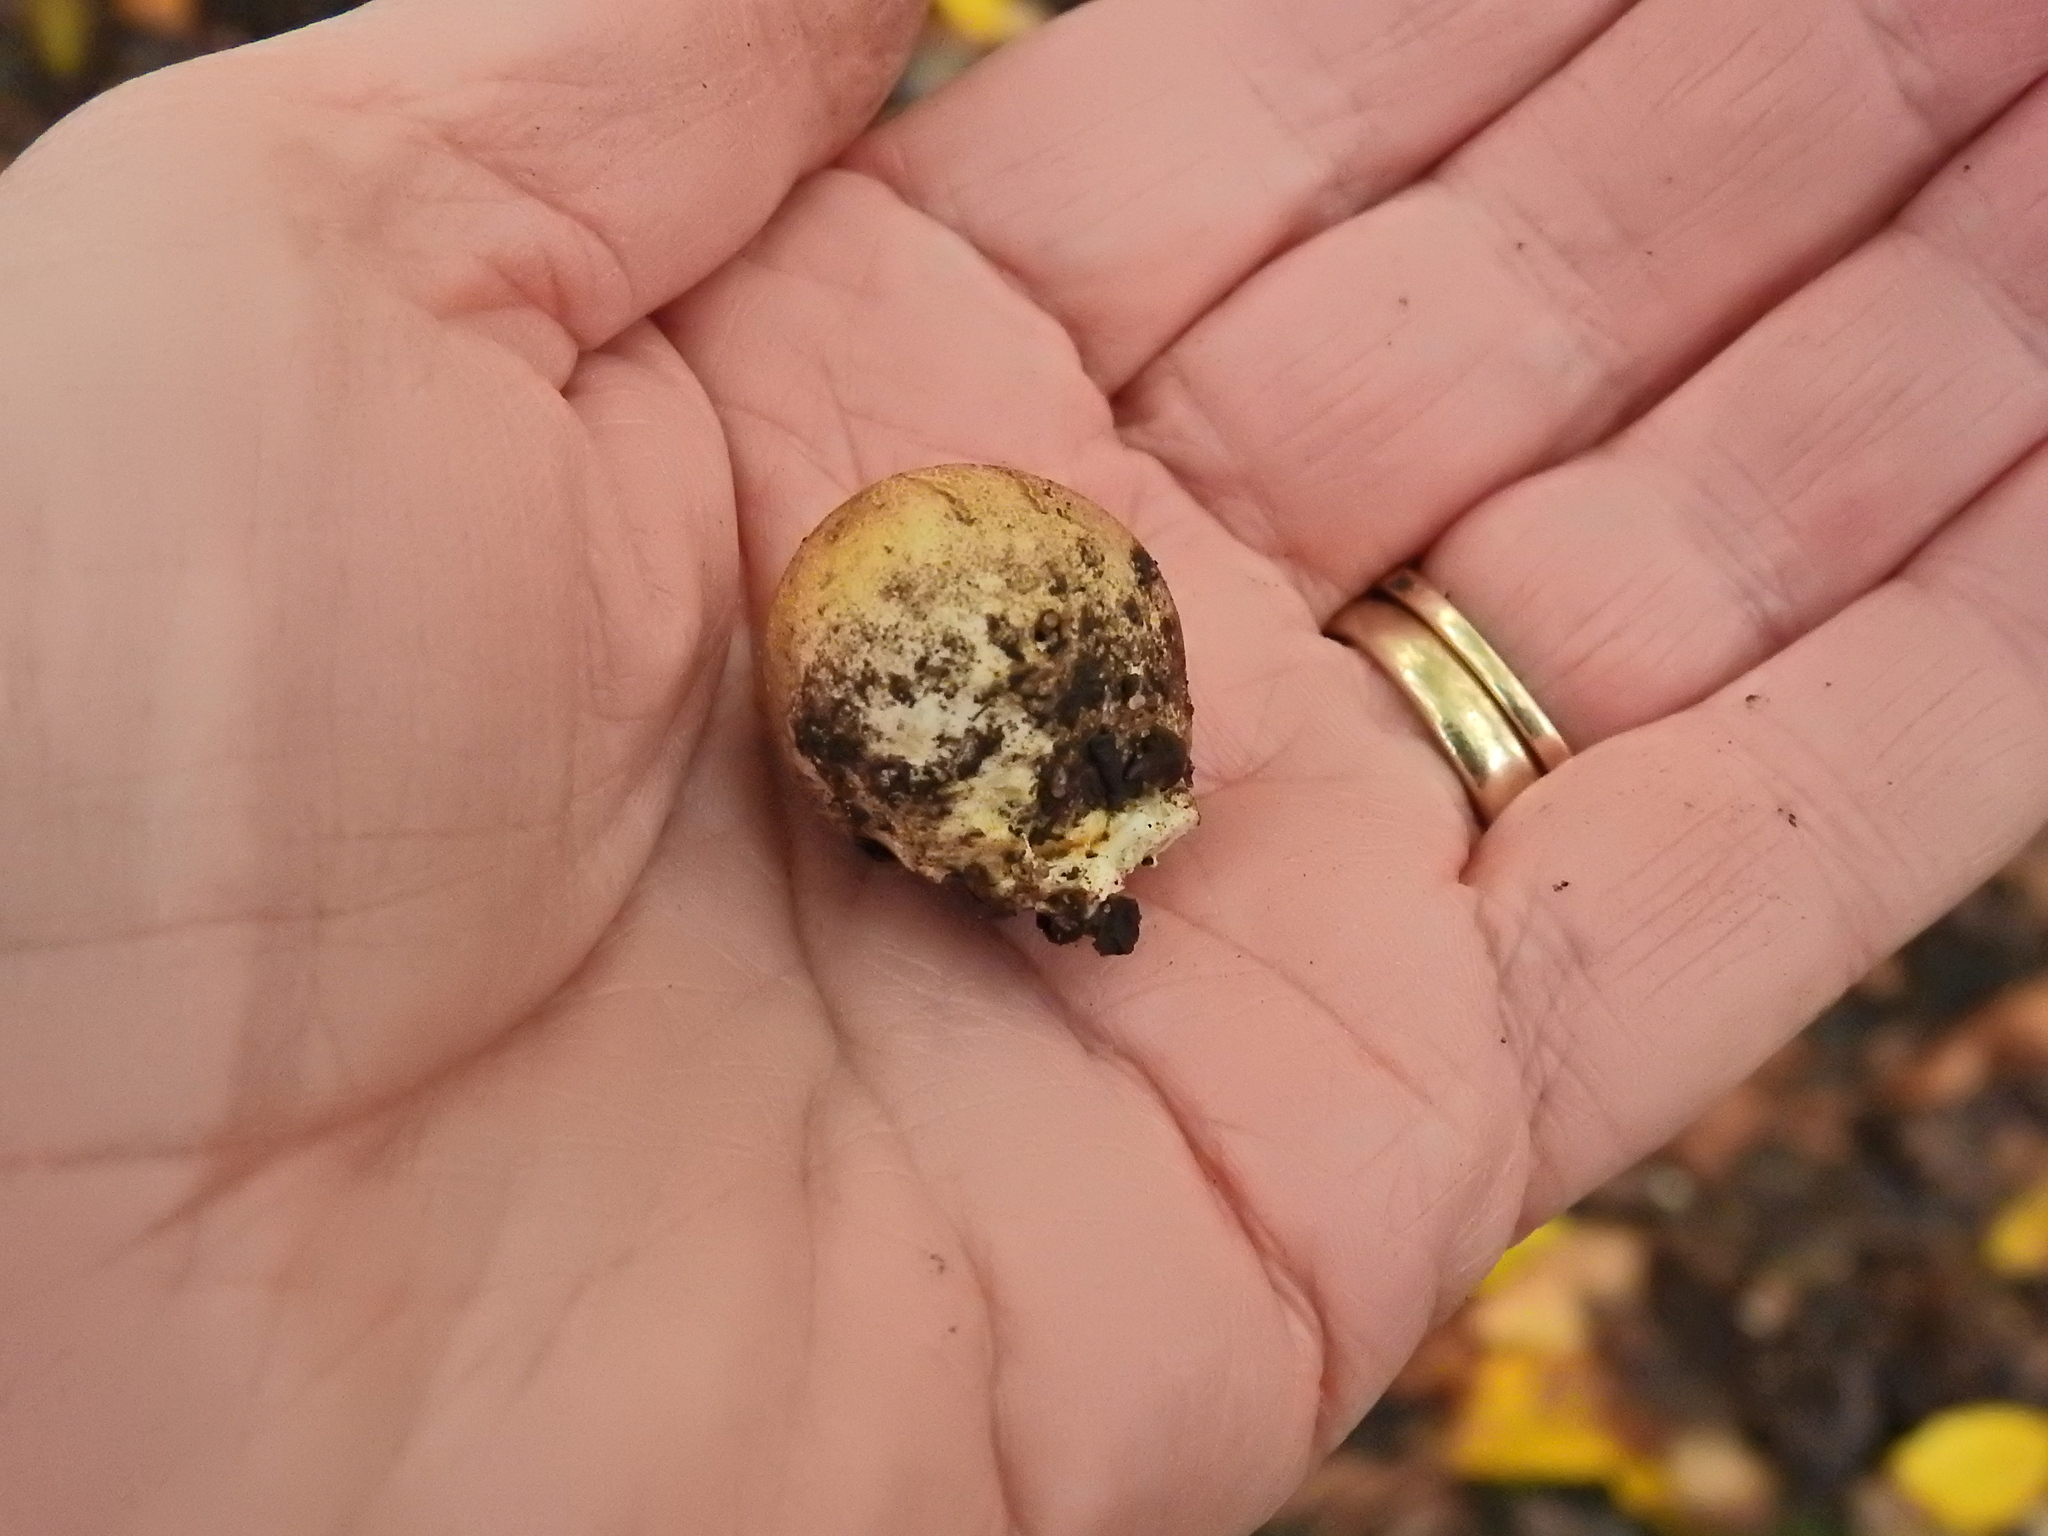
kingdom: Fungi
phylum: Basidiomycota
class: Agaricomycetes
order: Boletales
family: Sclerodermataceae
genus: Scleroderma
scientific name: Scleroderma citrinum
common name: Common earthball
